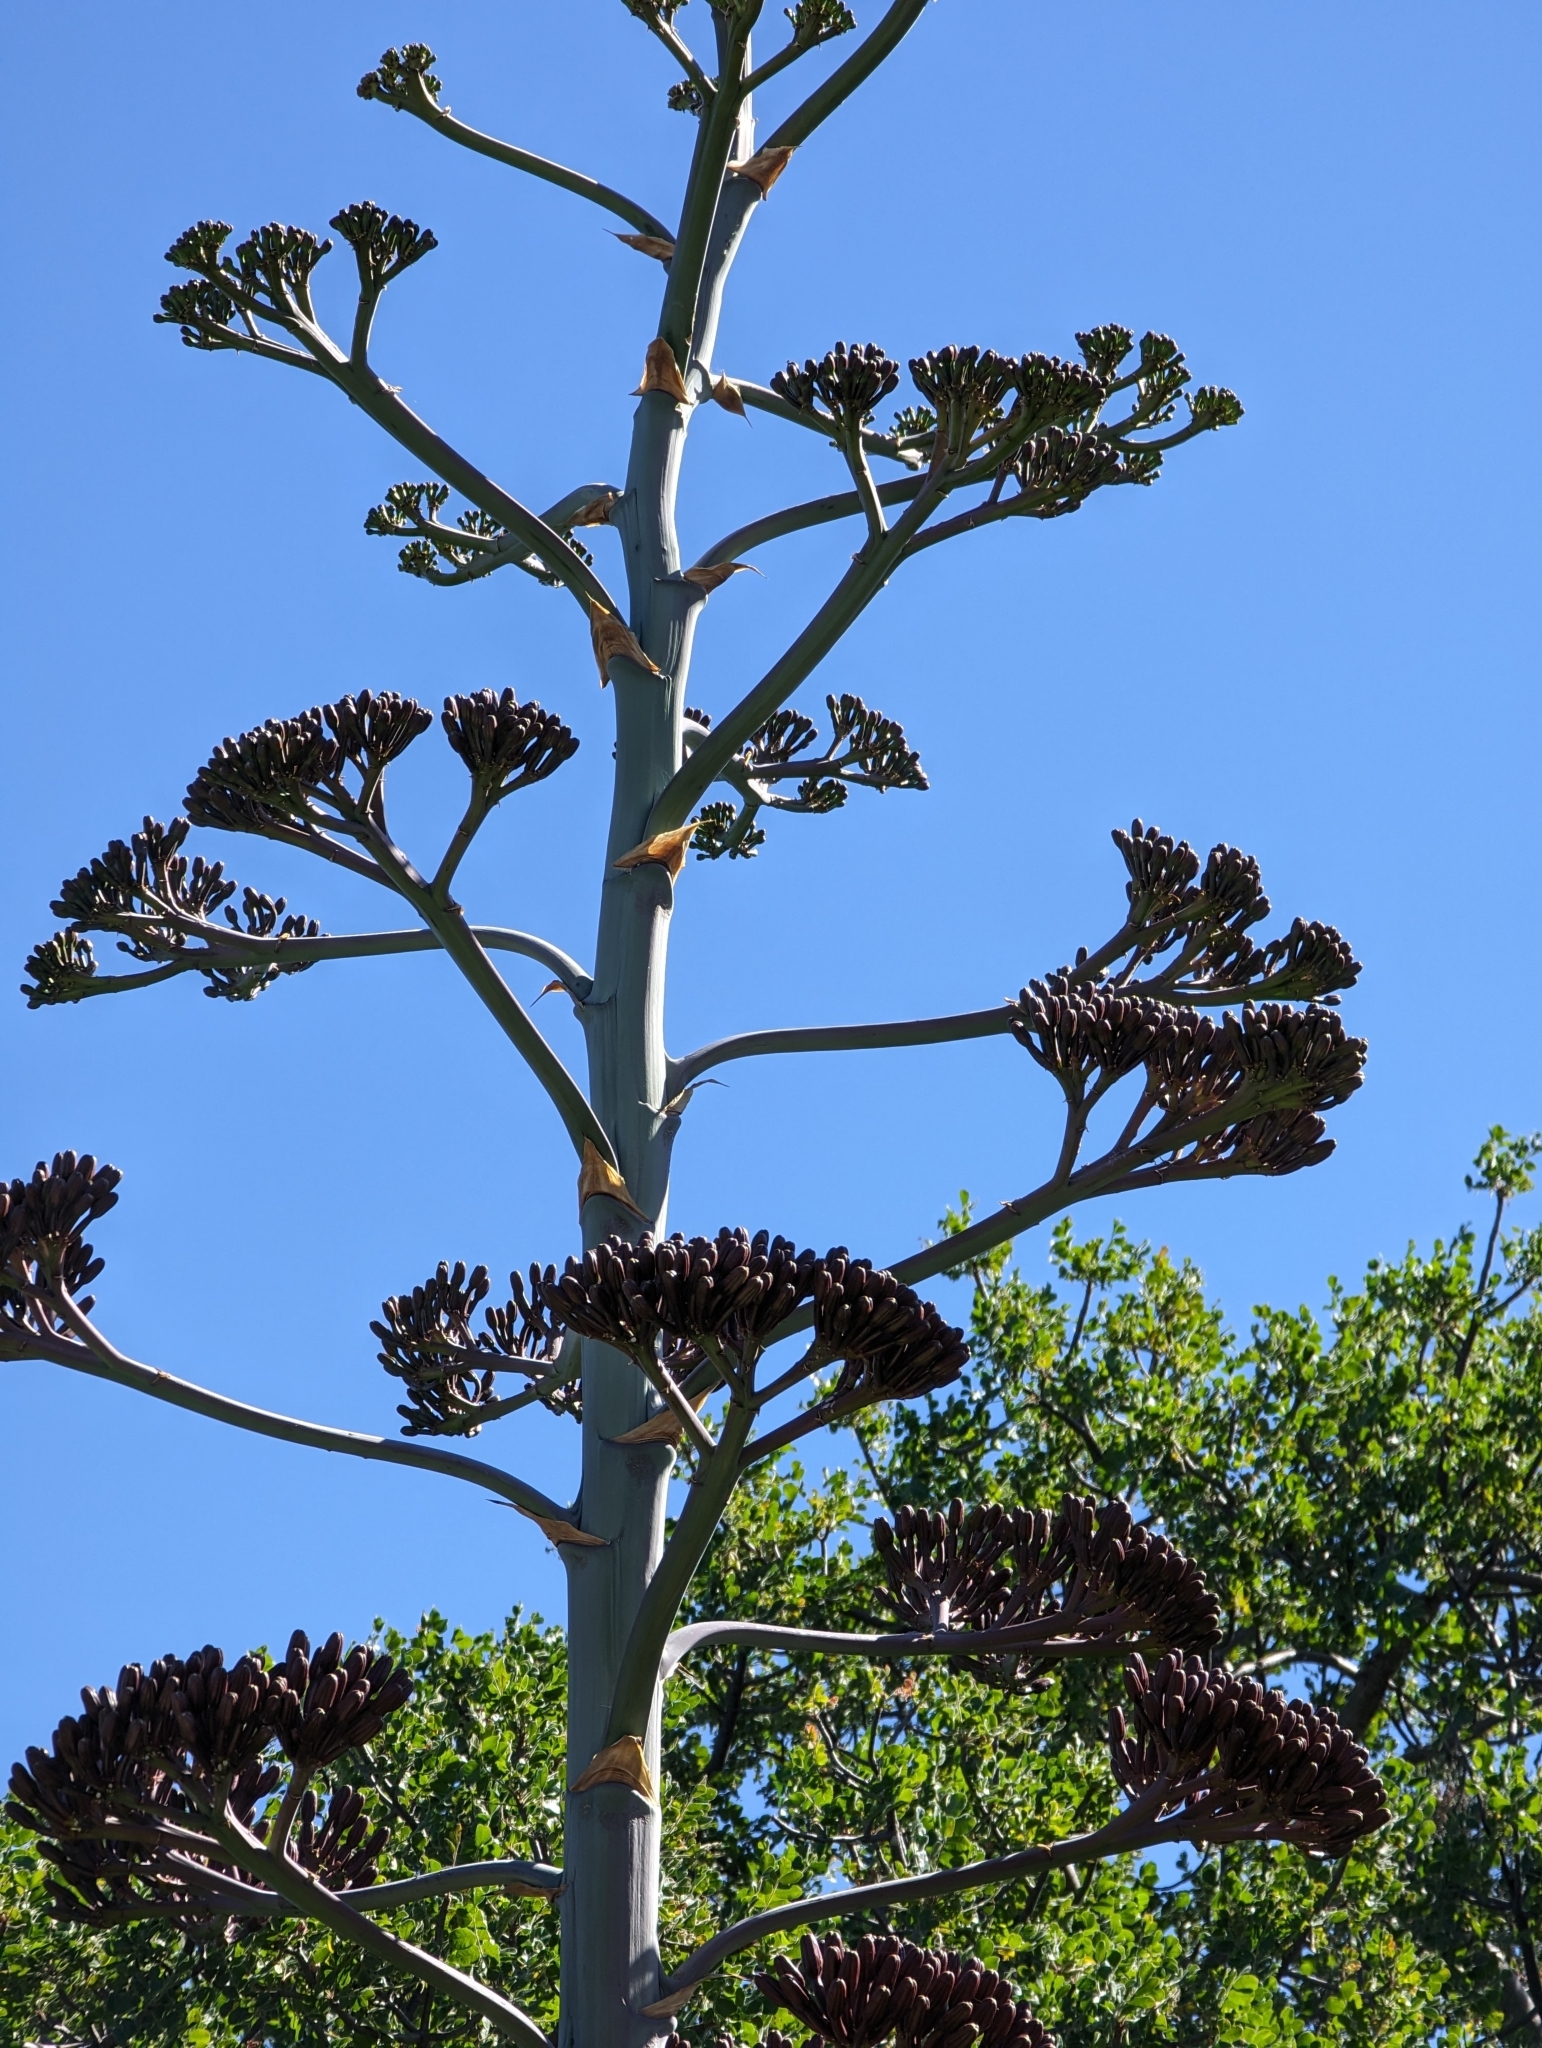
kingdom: Plantae
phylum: Tracheophyta
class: Liliopsida
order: Asparagales
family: Asparagaceae
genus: Agave
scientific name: Agave aurea
